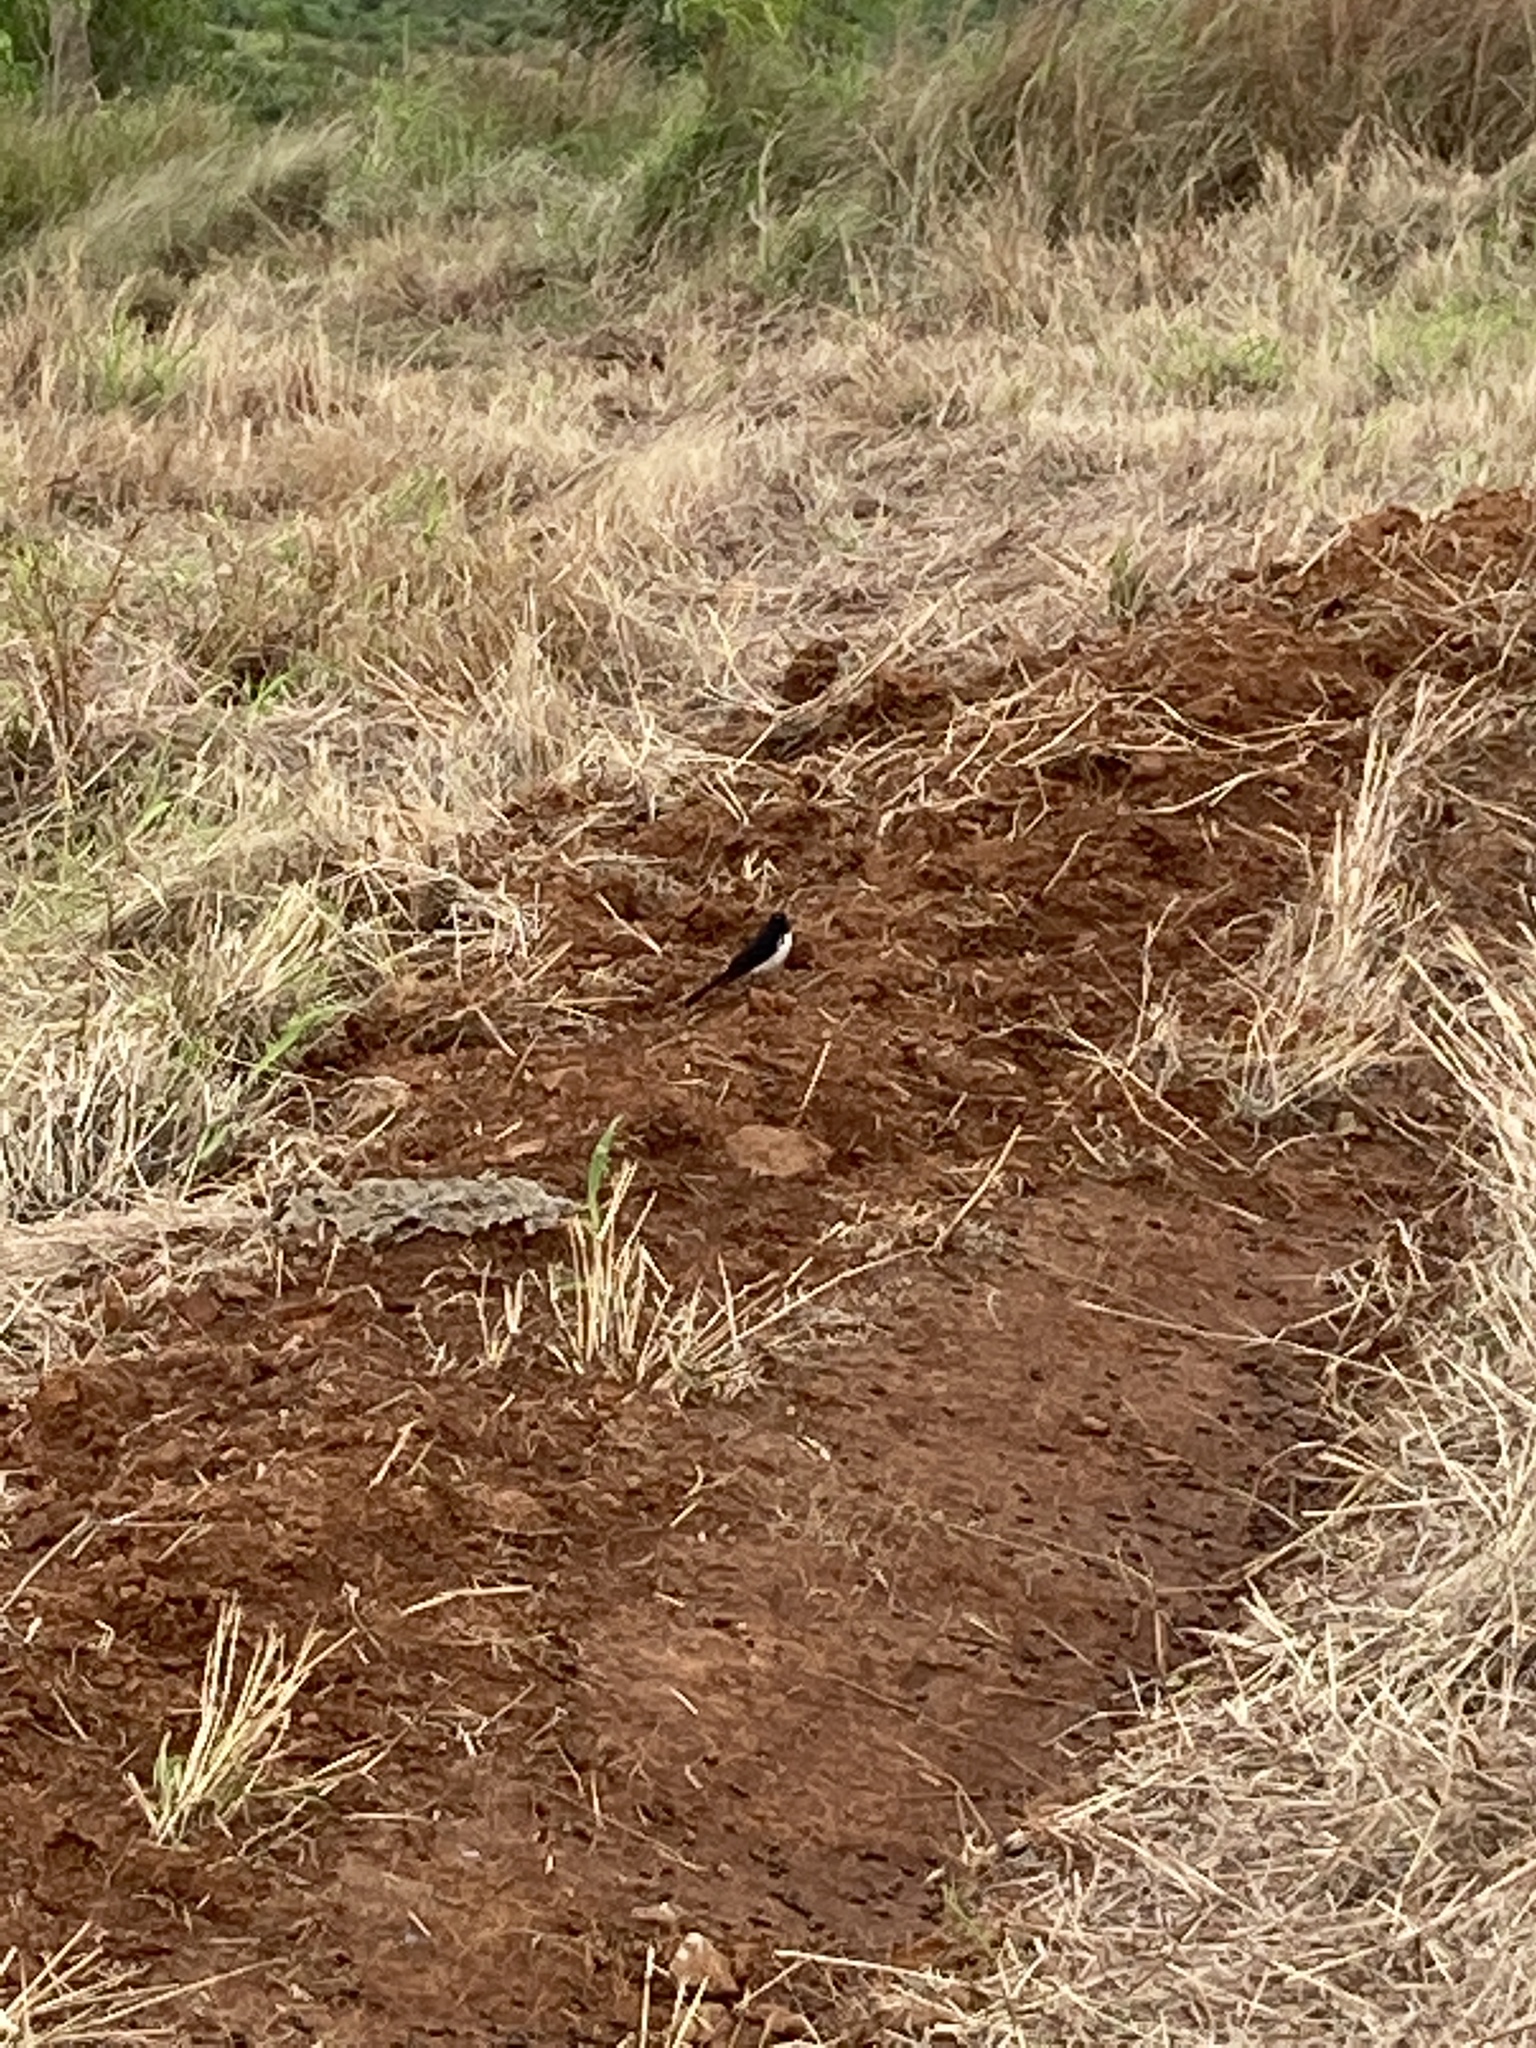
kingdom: Animalia
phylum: Chordata
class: Aves
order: Passeriformes
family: Rhipiduridae
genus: Rhipidura
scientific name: Rhipidura leucophrys
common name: Willie wagtail
